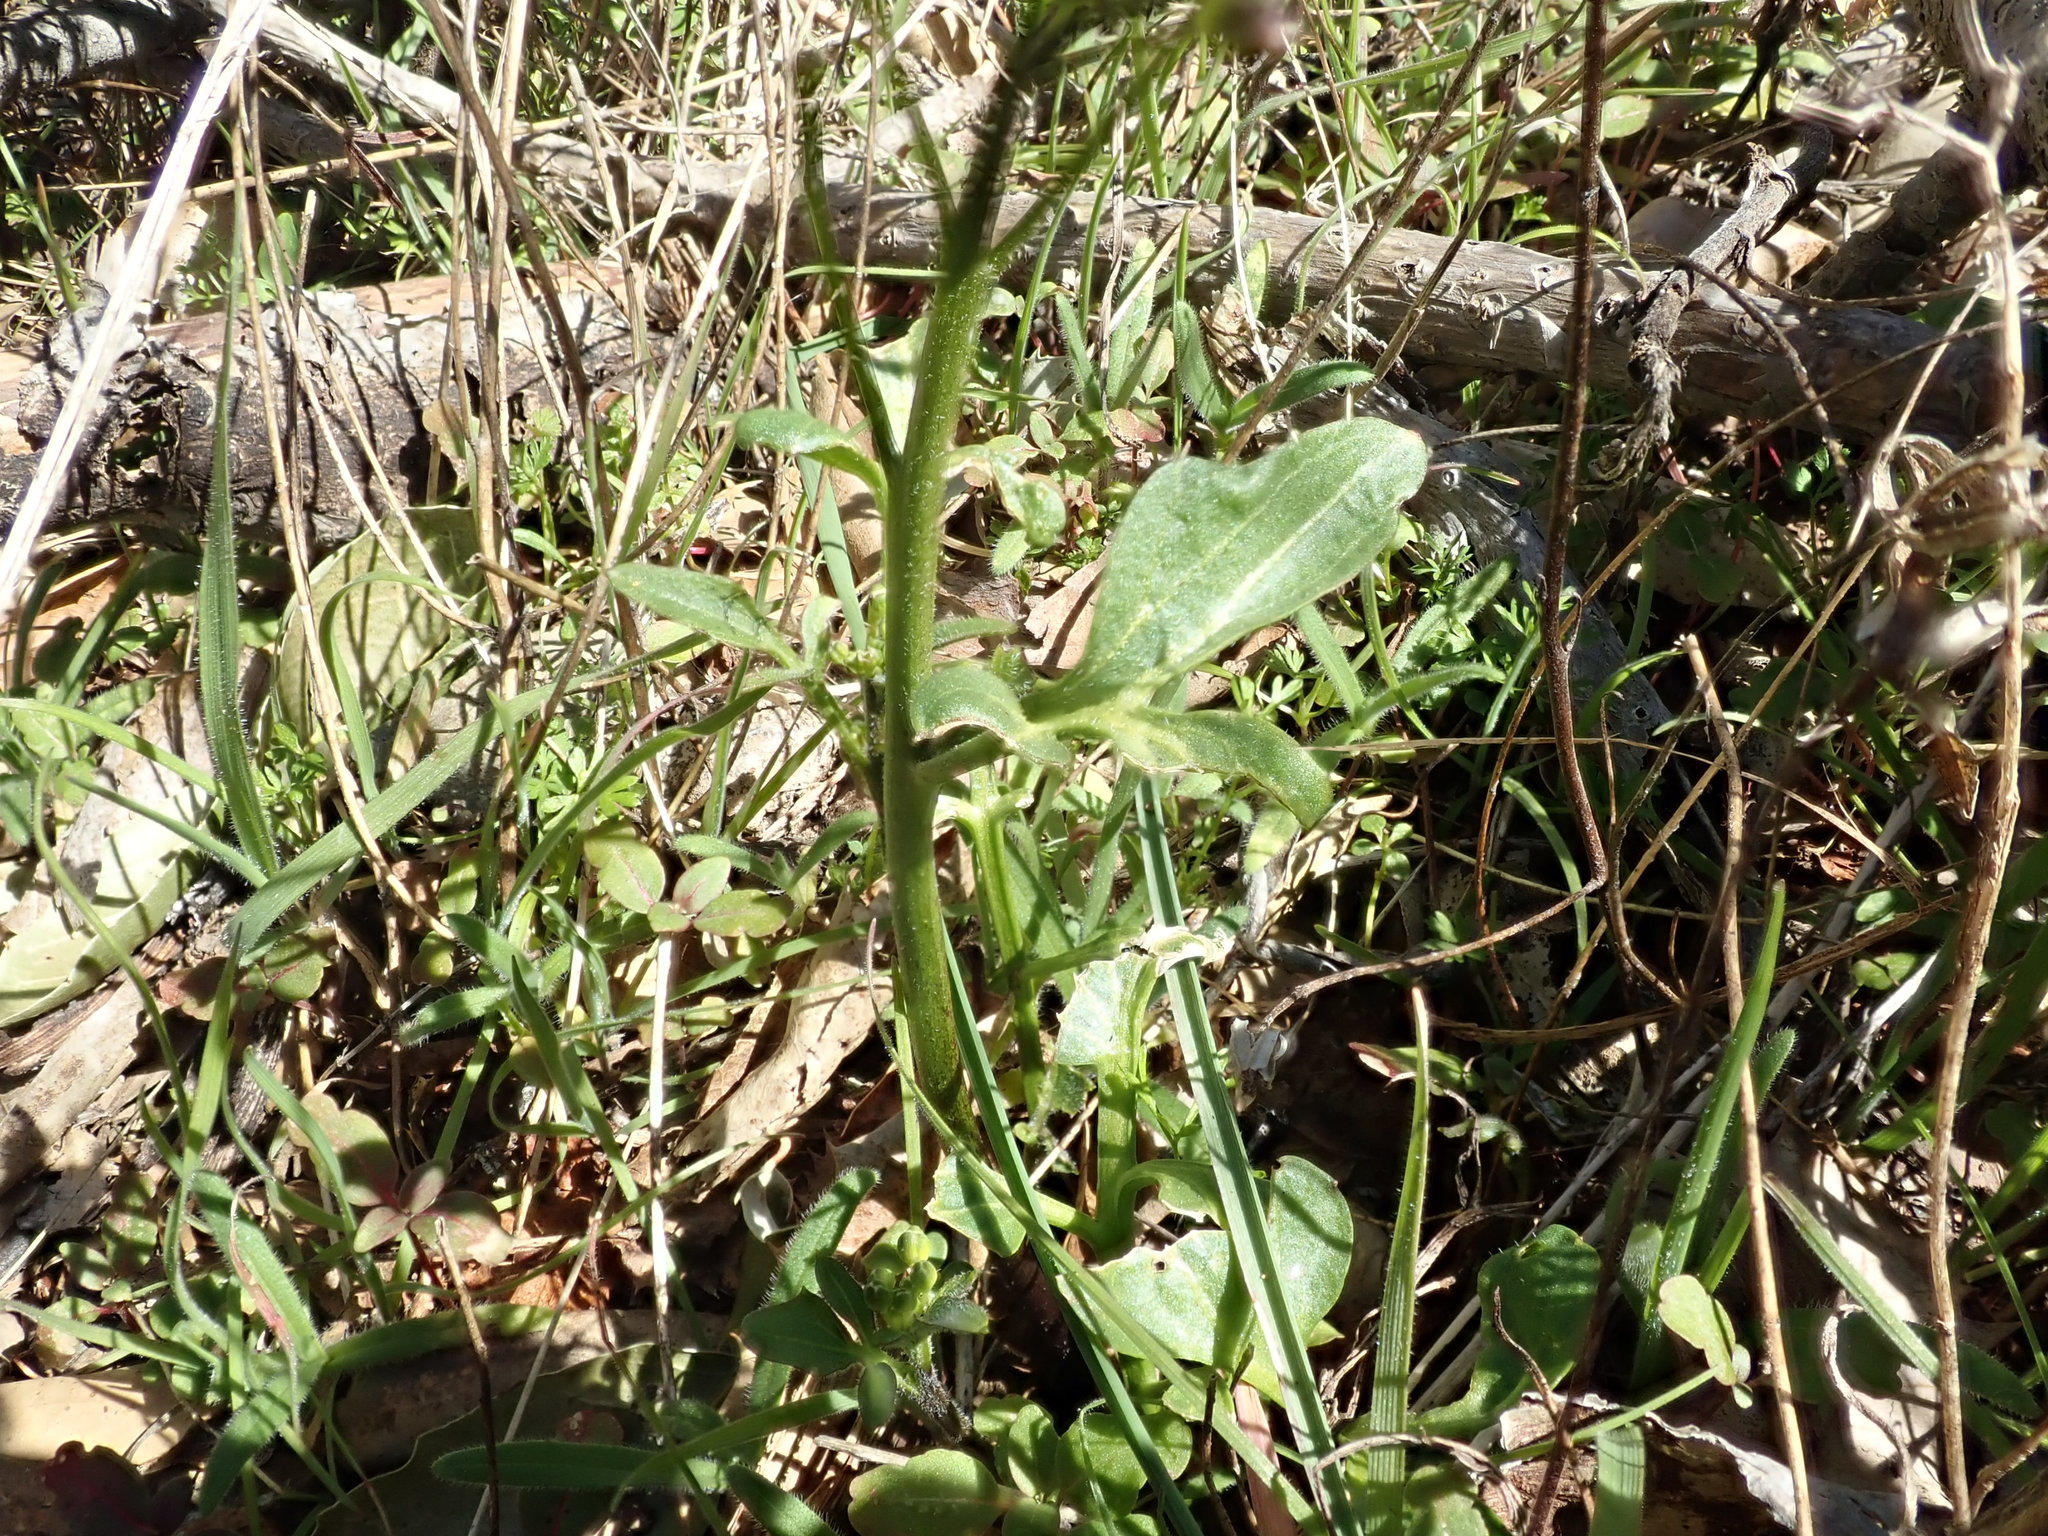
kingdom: Plantae
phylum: Tracheophyta
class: Magnoliopsida
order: Brassicales
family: Brassicaceae
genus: Cardamine
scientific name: Cardamine californica
